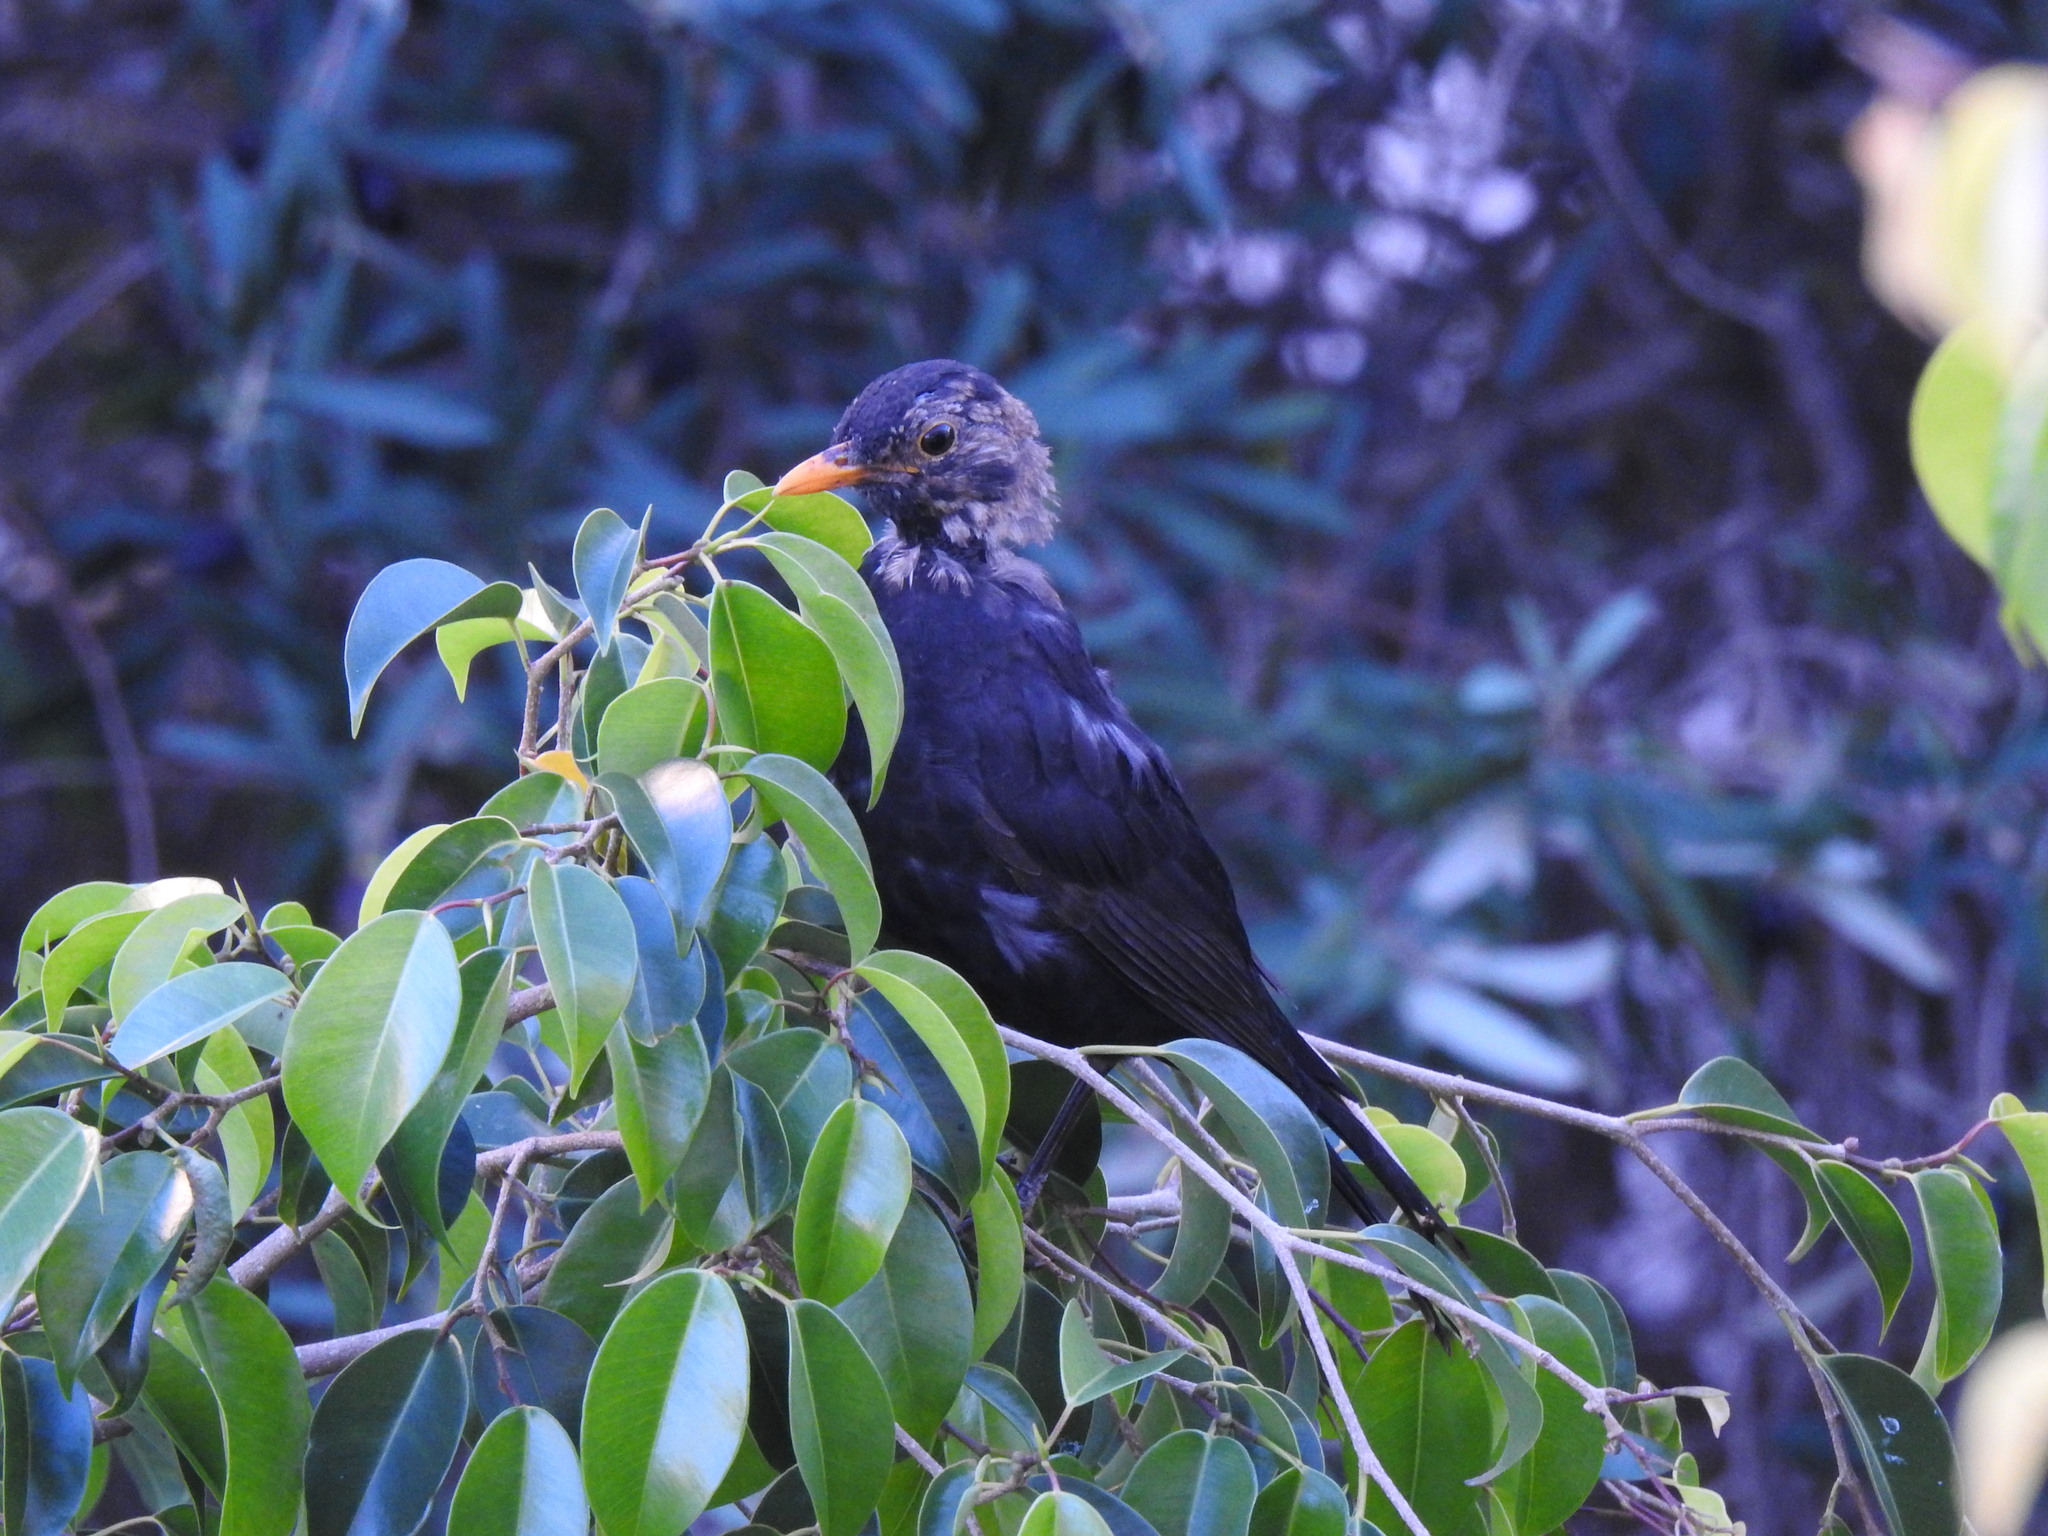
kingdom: Animalia
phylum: Chordata
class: Aves
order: Passeriformes
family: Turdidae
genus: Turdus
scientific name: Turdus merula
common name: Common blackbird
